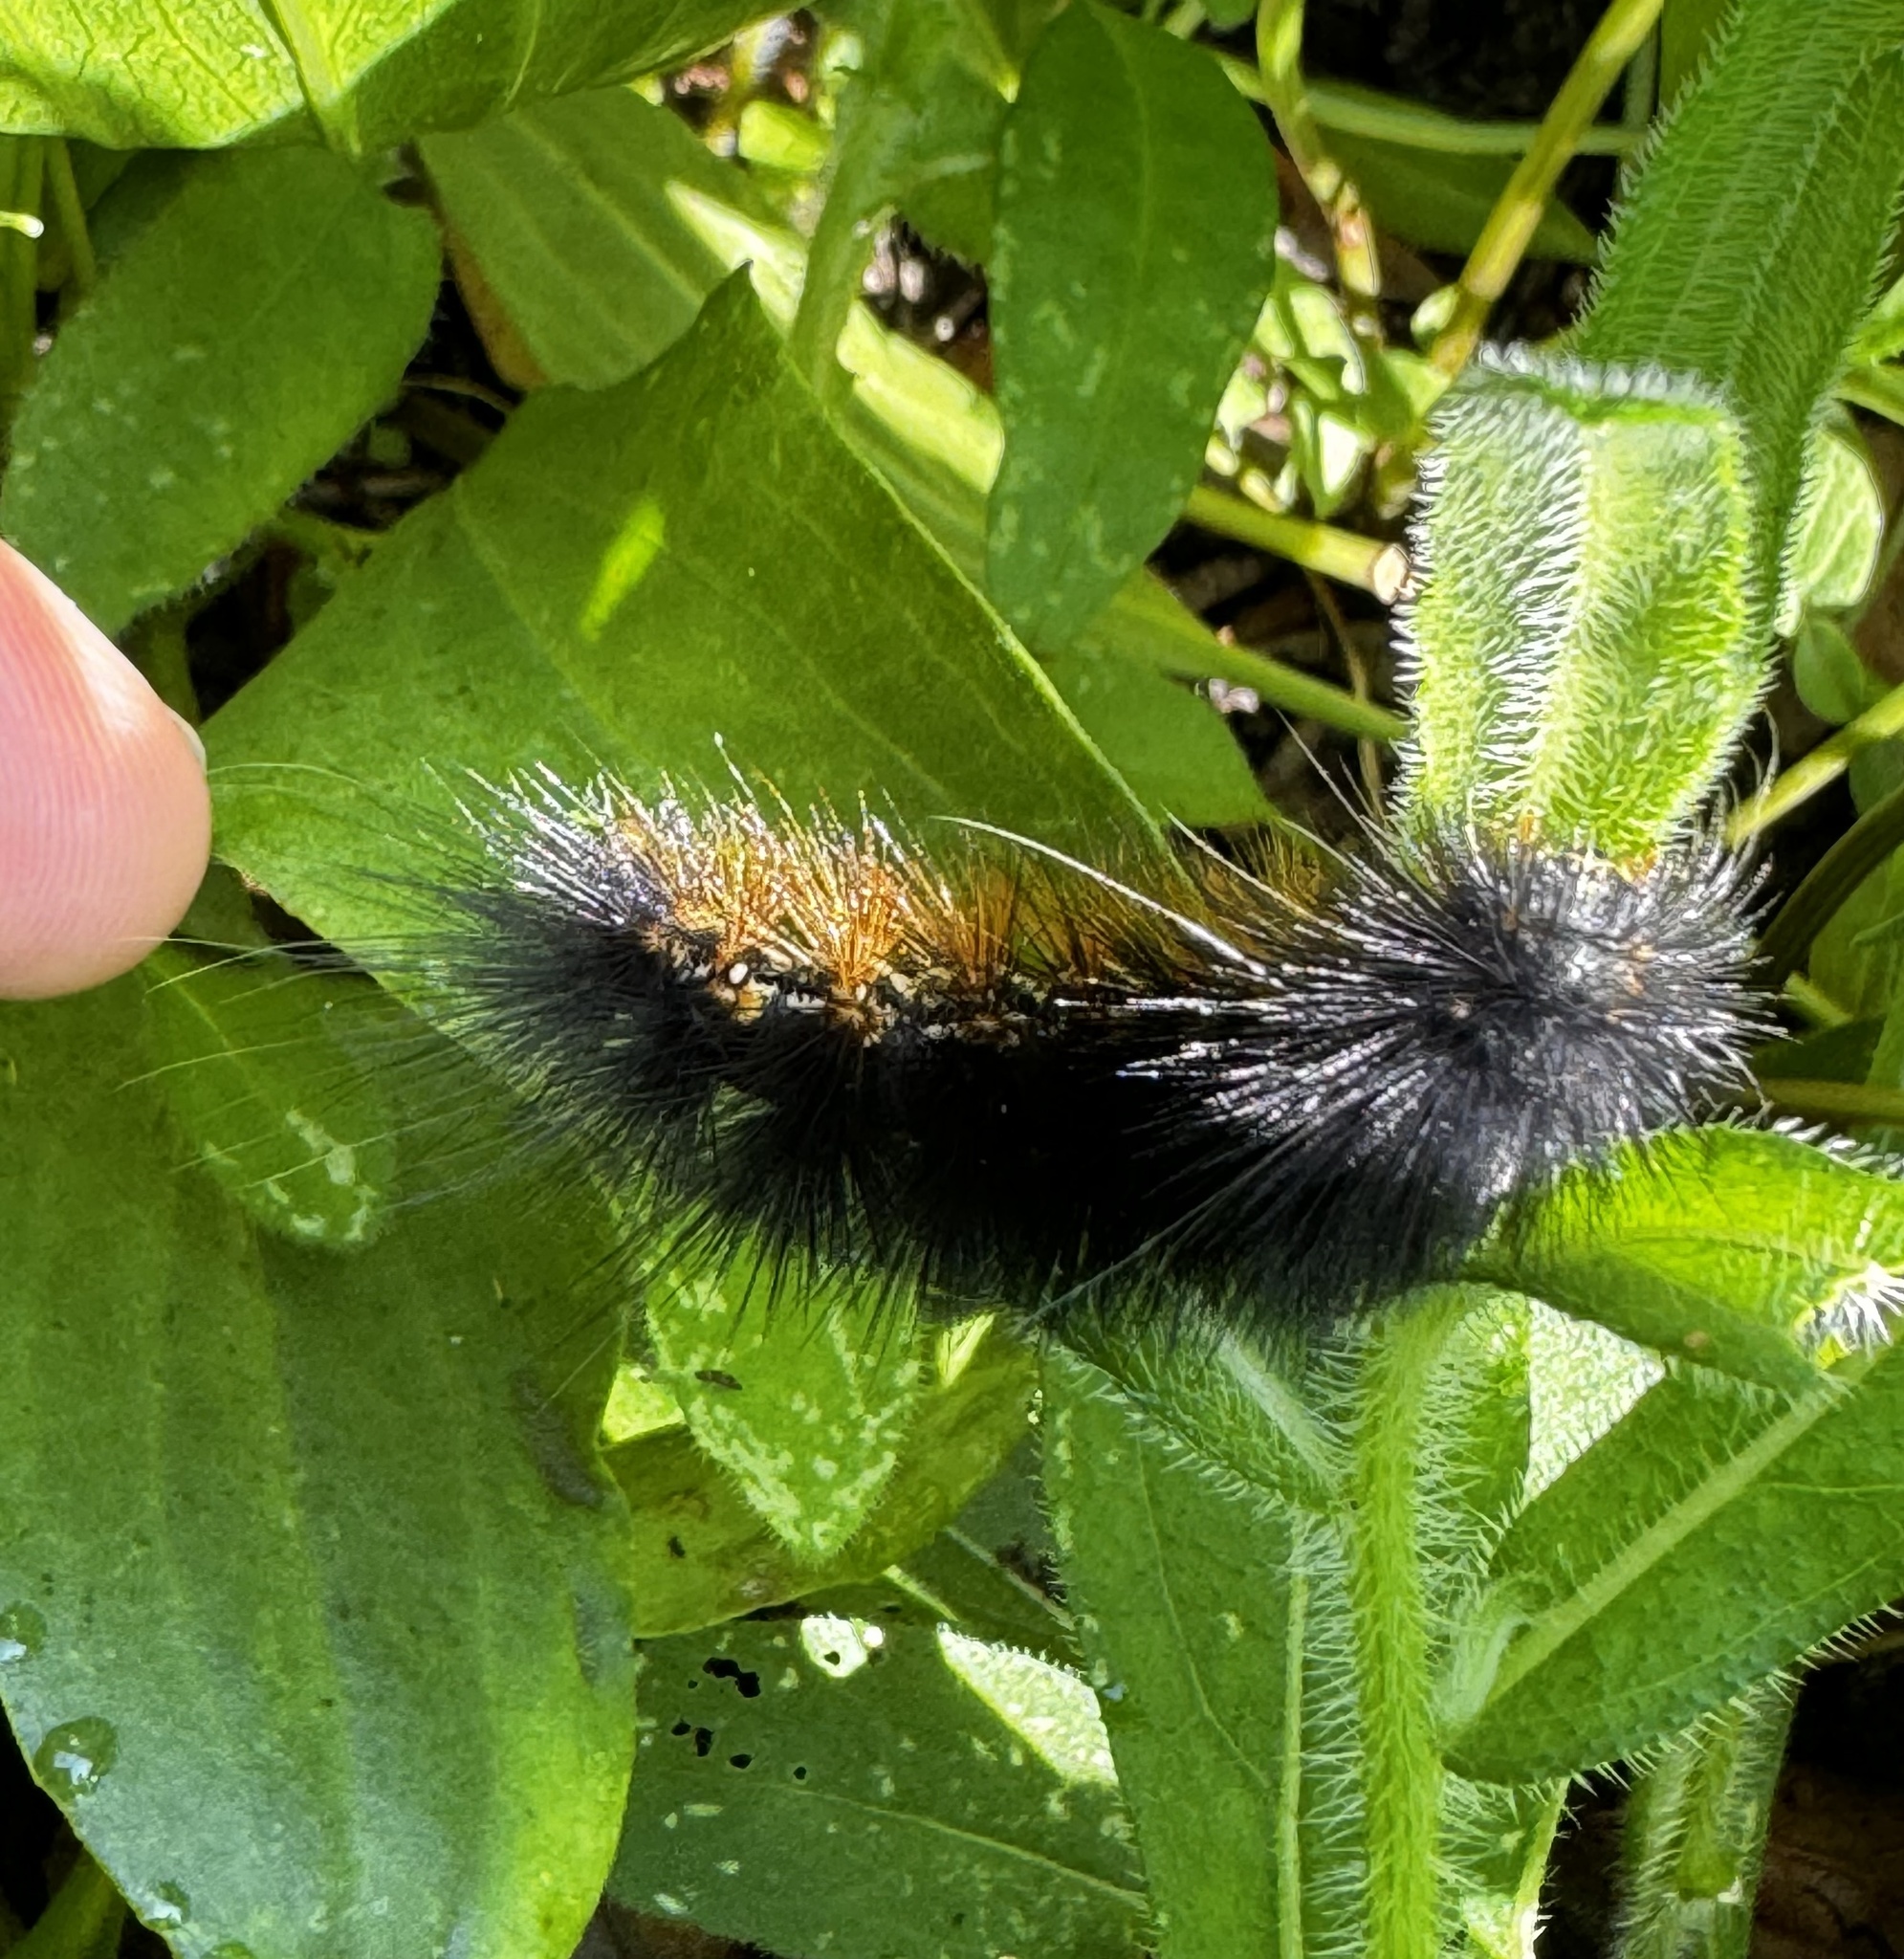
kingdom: Animalia
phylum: Arthropoda
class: Insecta
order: Lepidoptera
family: Erebidae
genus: Estigmene
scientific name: Estigmene acrea
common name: Salt marsh moth
